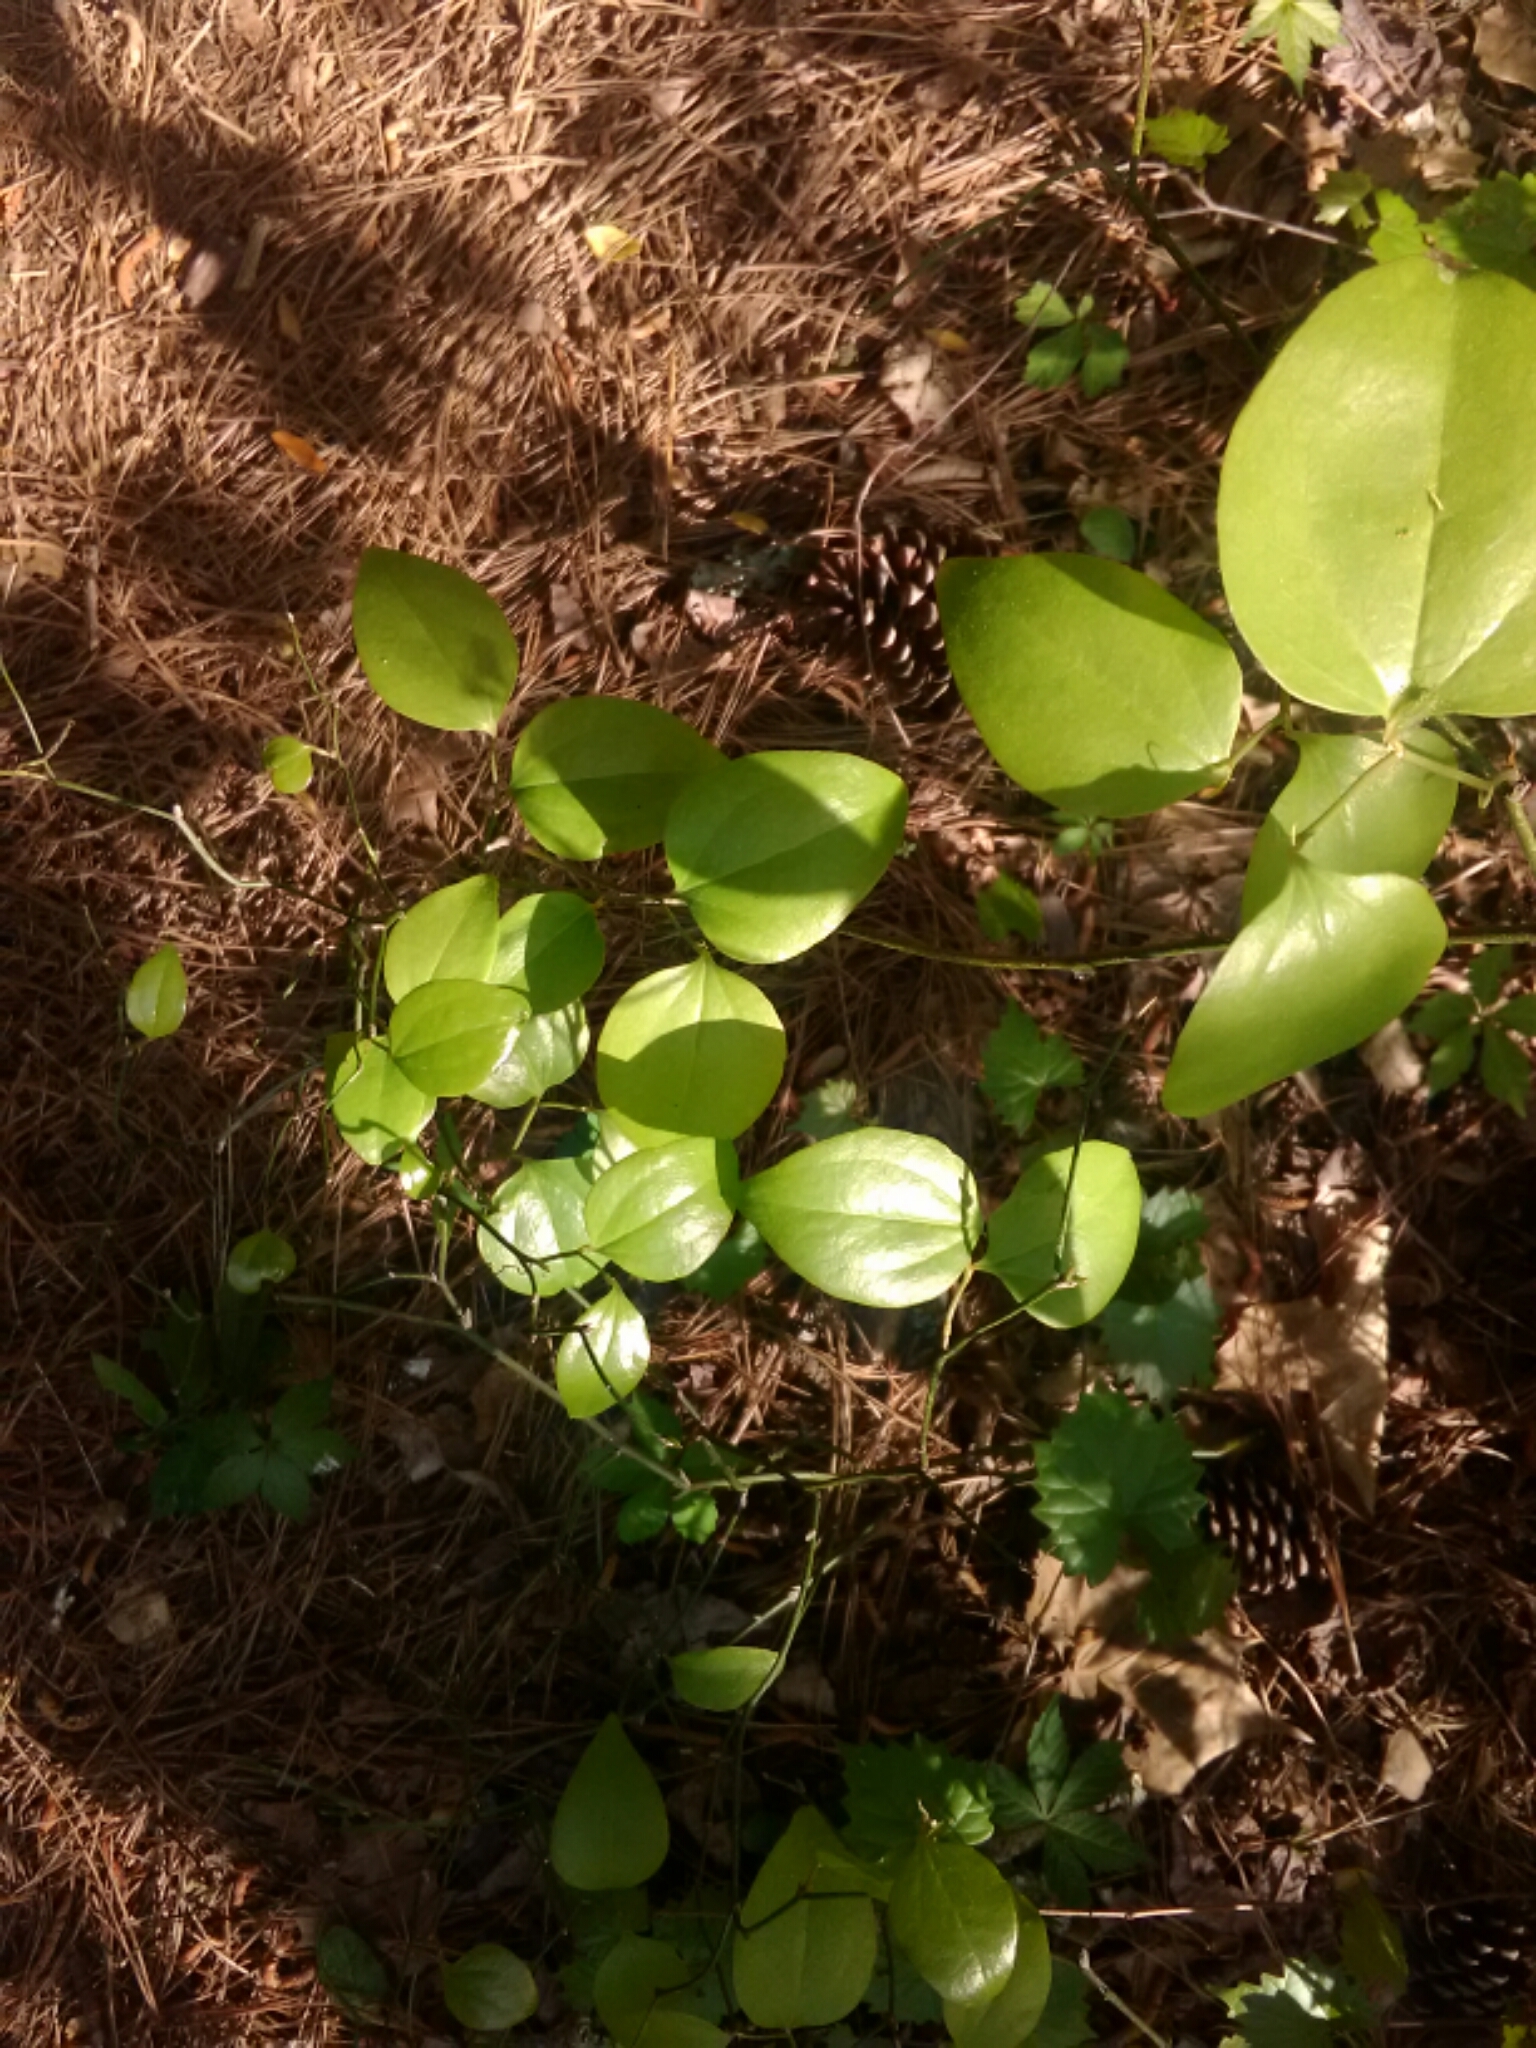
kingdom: Plantae
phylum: Tracheophyta
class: Liliopsida
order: Liliales
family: Smilacaceae
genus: Smilax
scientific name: Smilax rotundifolia
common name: Bullbriar
